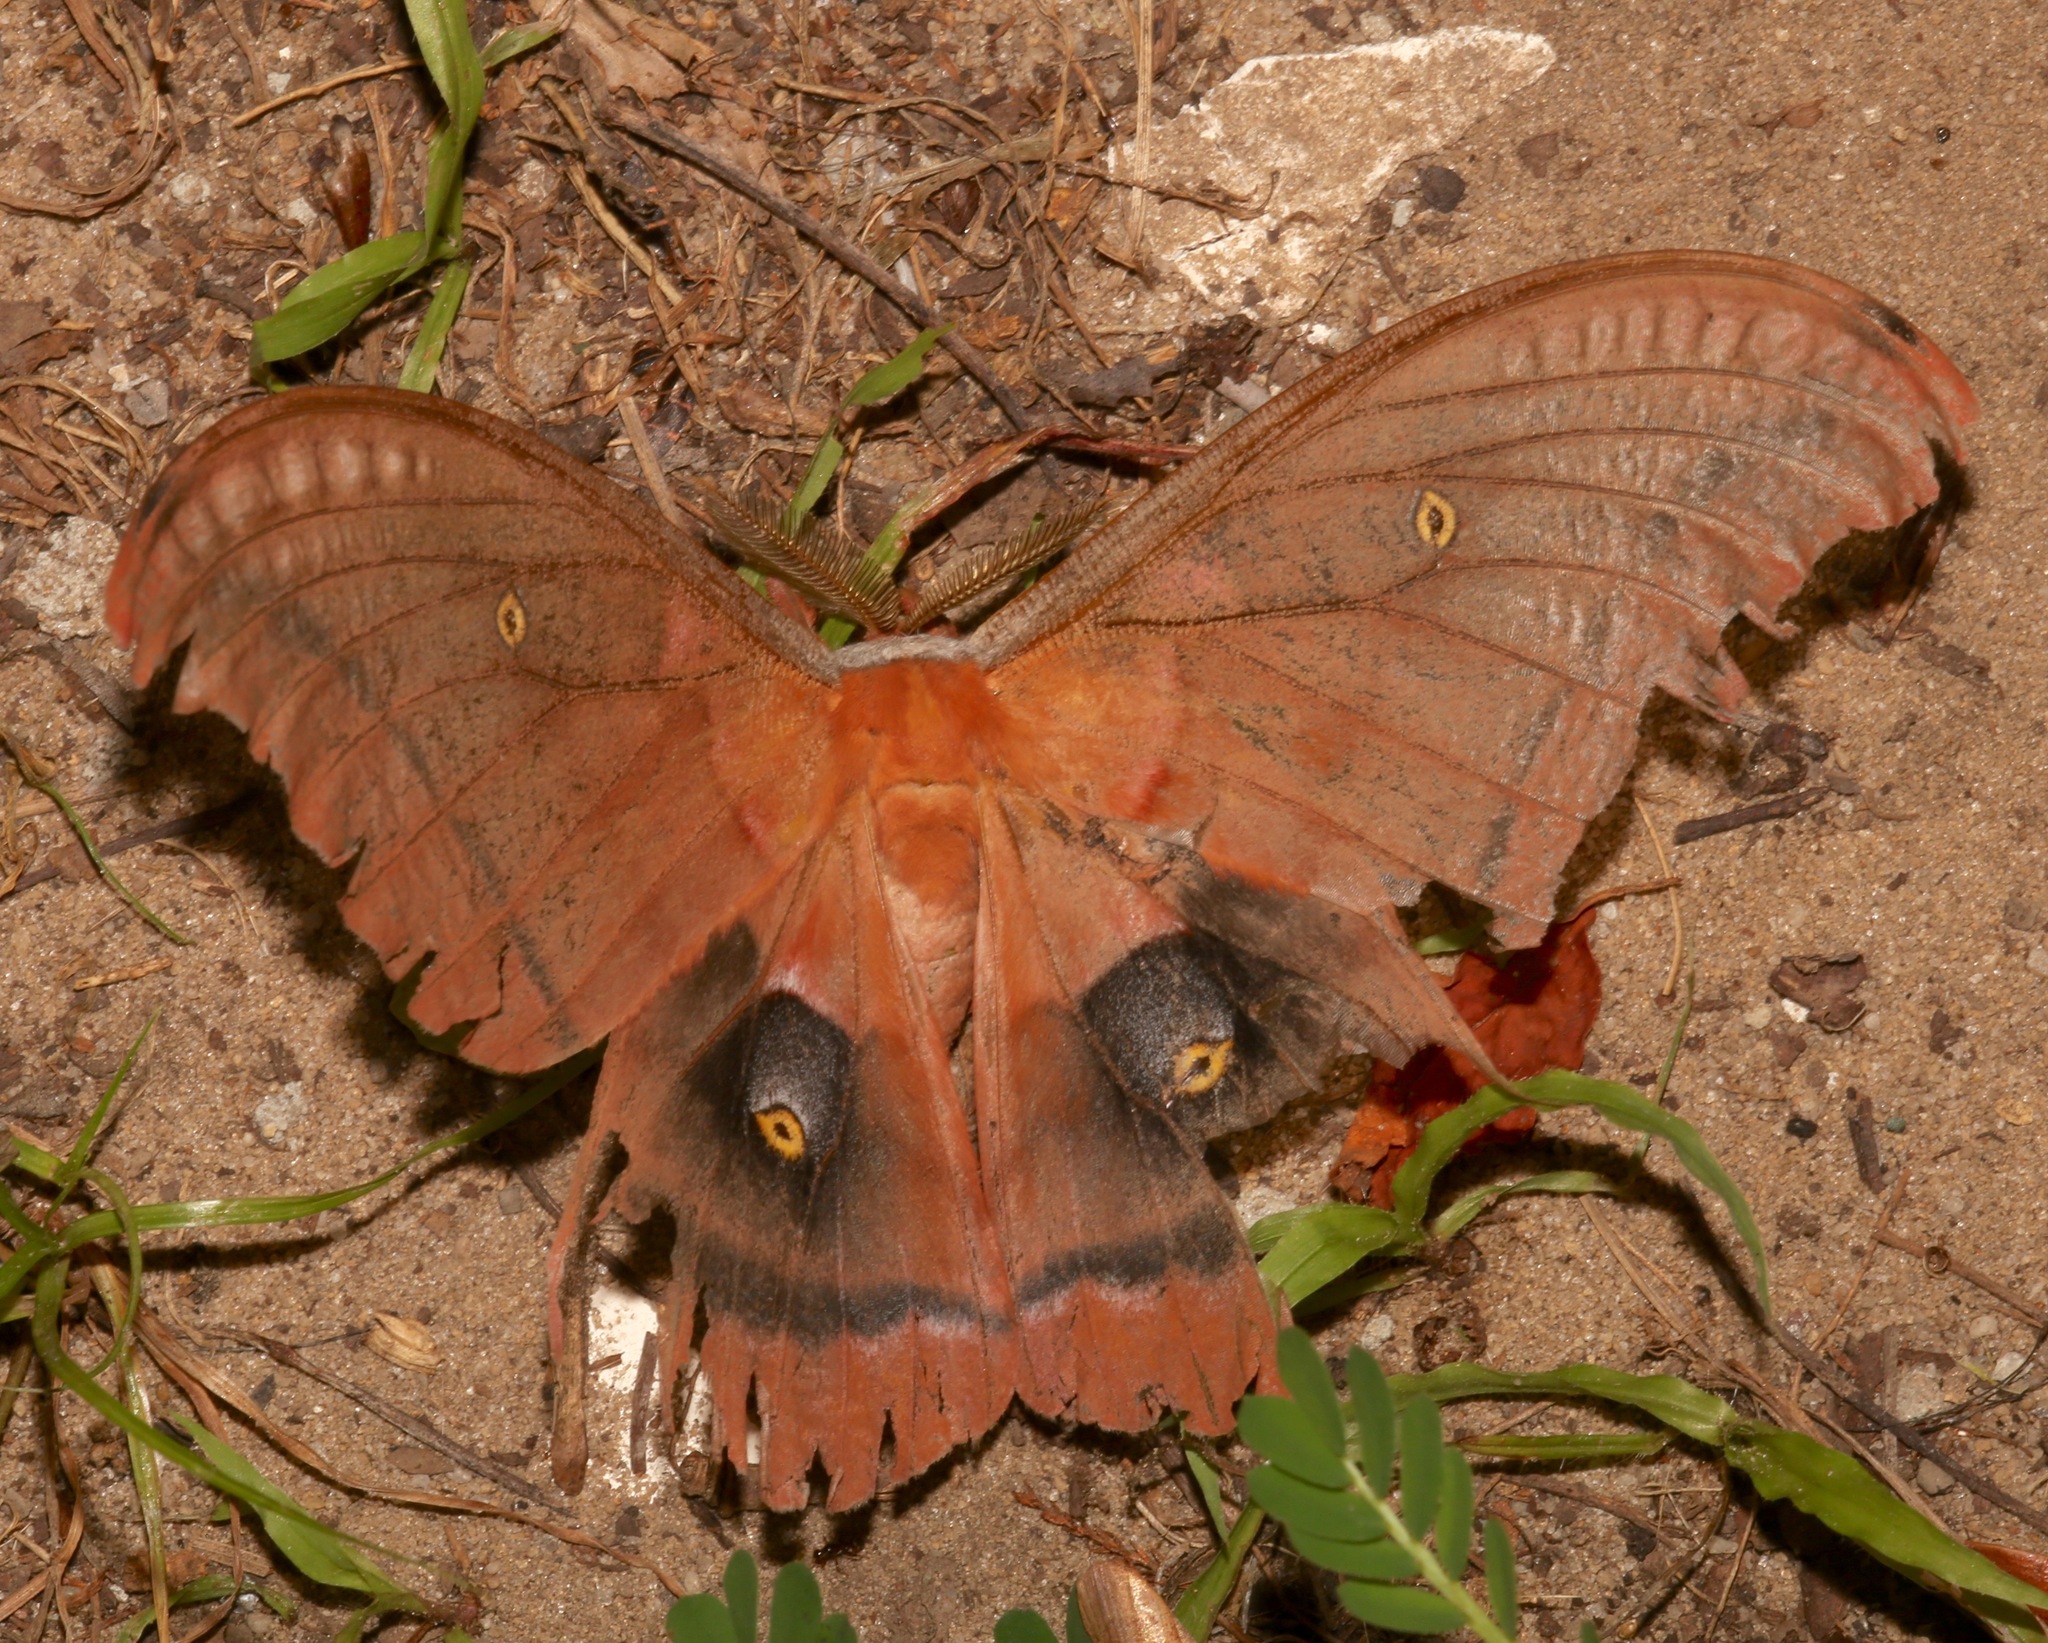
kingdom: Animalia
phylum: Arthropoda
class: Insecta
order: Lepidoptera
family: Saturniidae
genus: Antheraea
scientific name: Antheraea polyphemus
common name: Polyphemus moth
